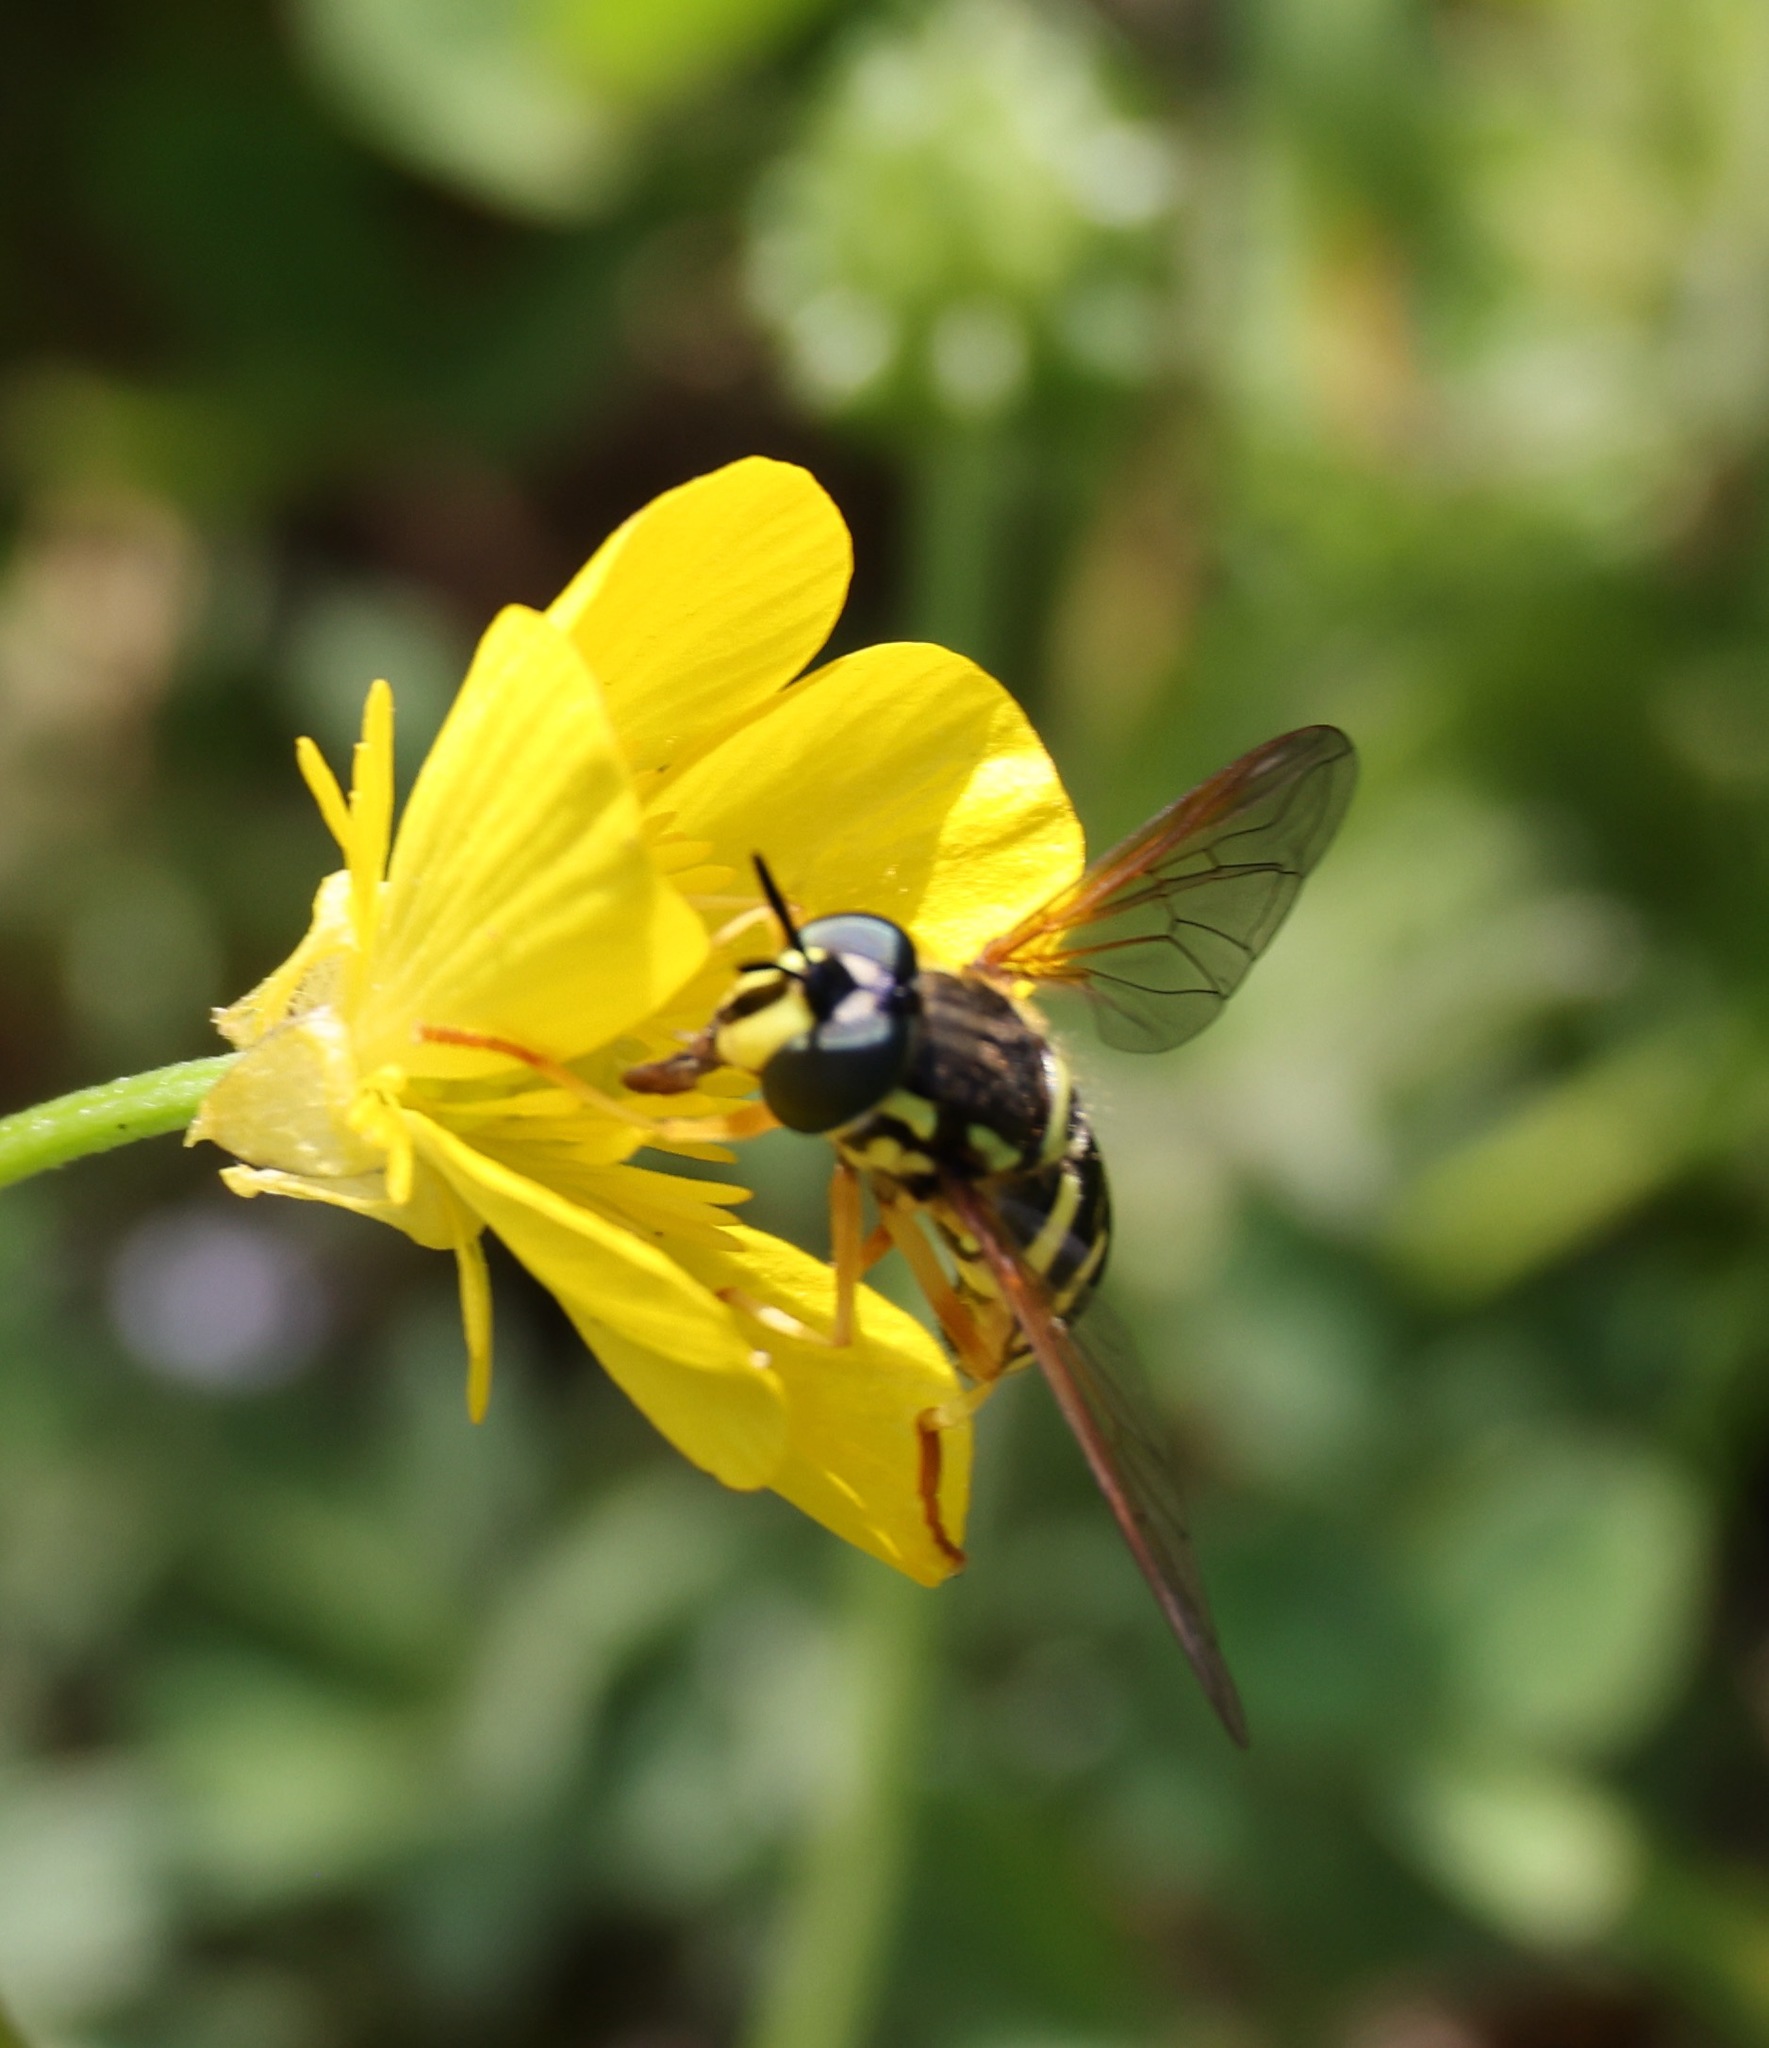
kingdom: Animalia
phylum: Arthropoda
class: Insecta
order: Diptera
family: Syrphidae
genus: Chrysotoxum
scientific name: Chrysotoxum festivum
